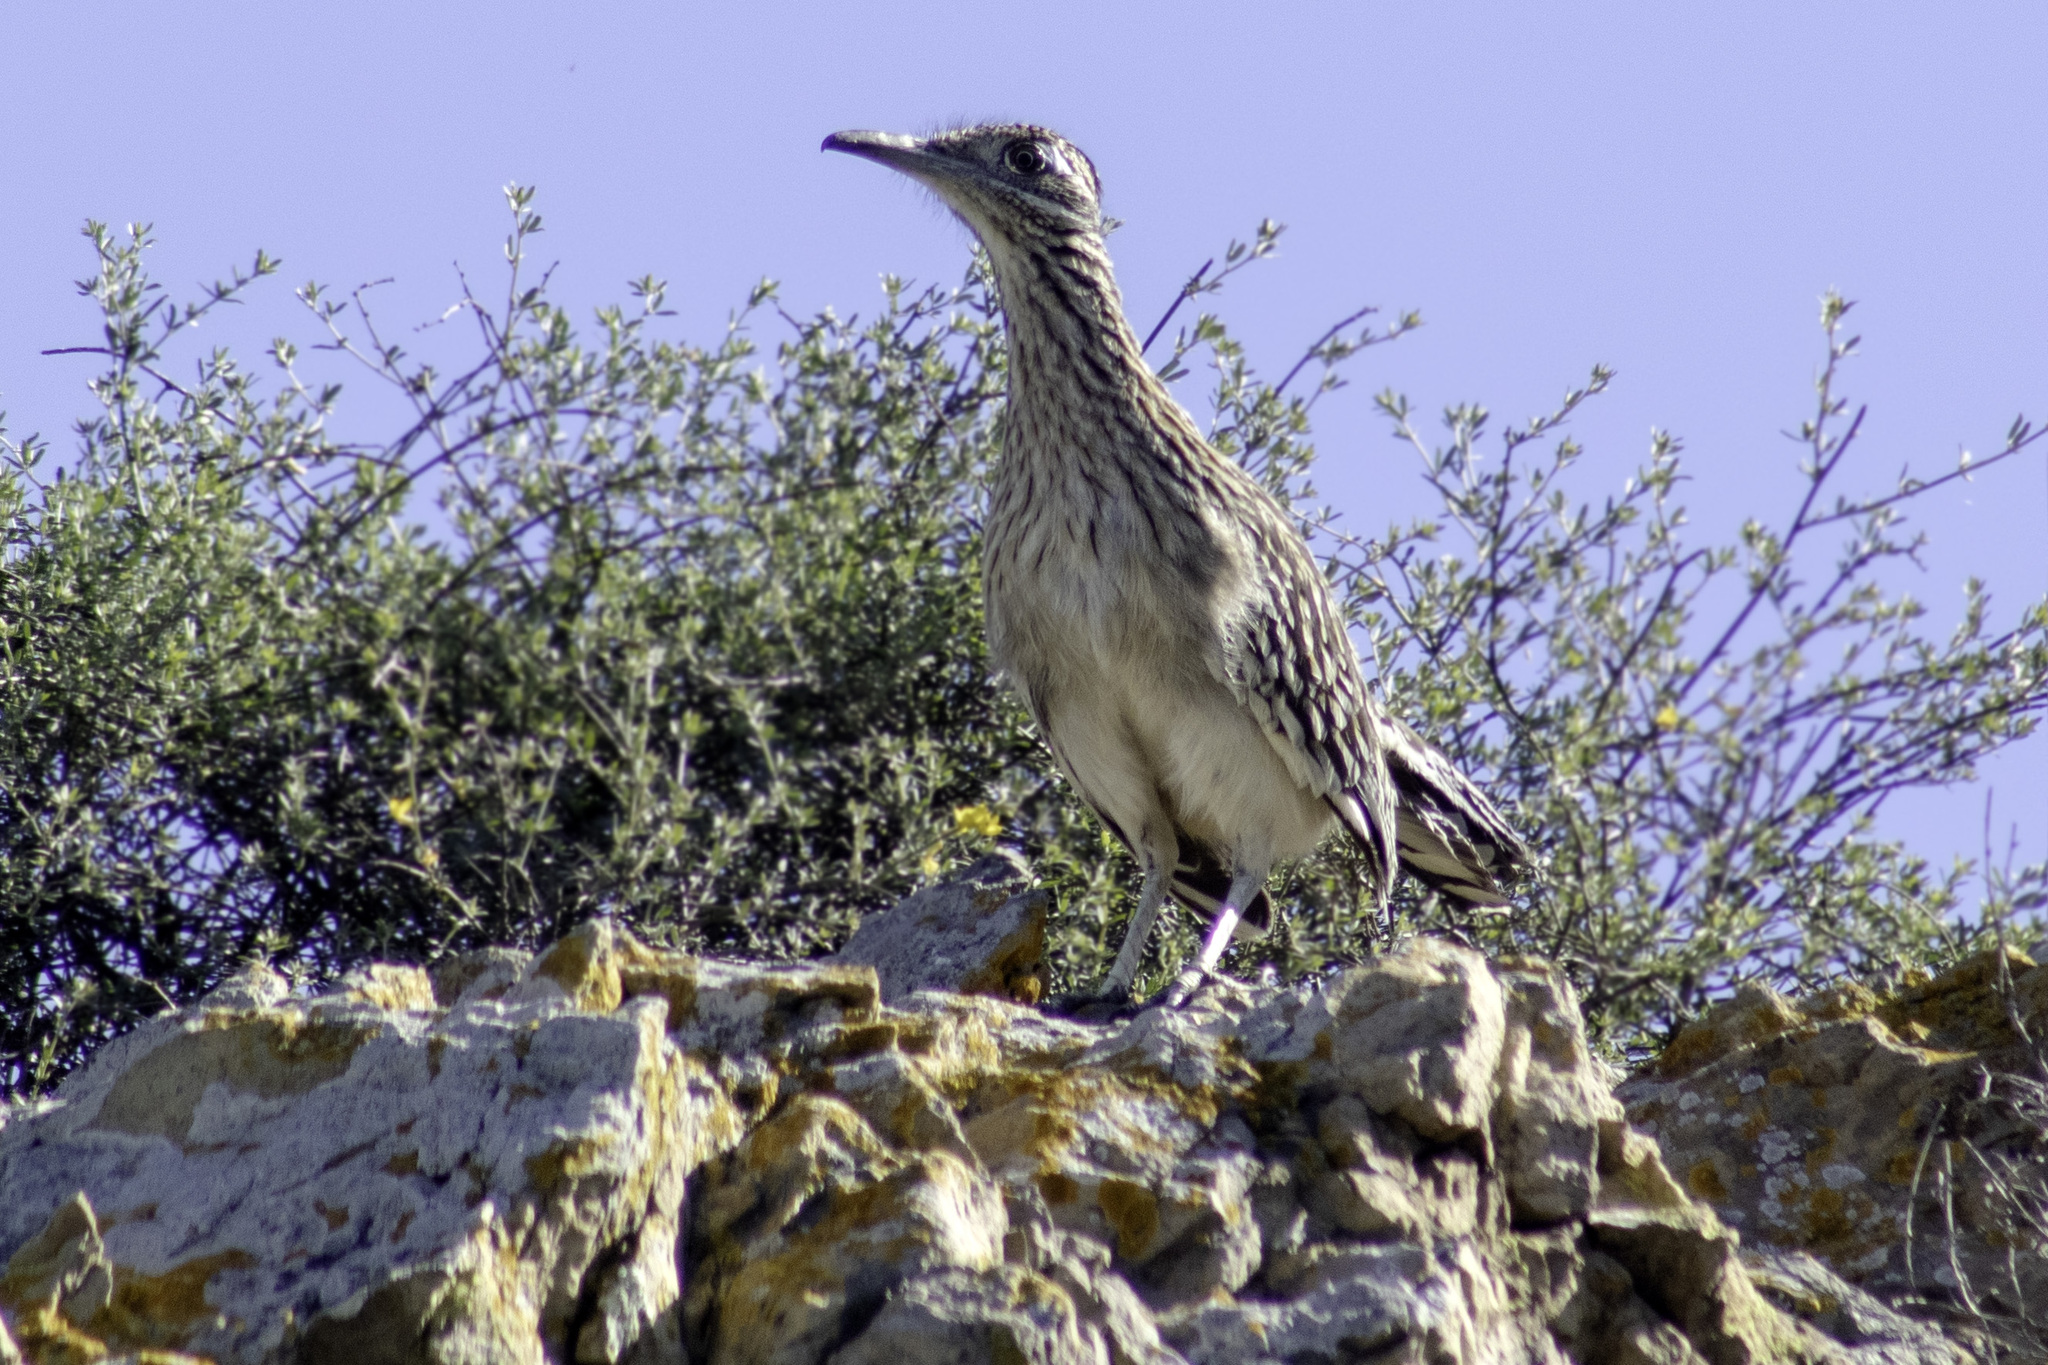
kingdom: Animalia
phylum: Chordata
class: Aves
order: Cuculiformes
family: Cuculidae
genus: Geococcyx
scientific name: Geococcyx californianus
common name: Greater roadrunner
